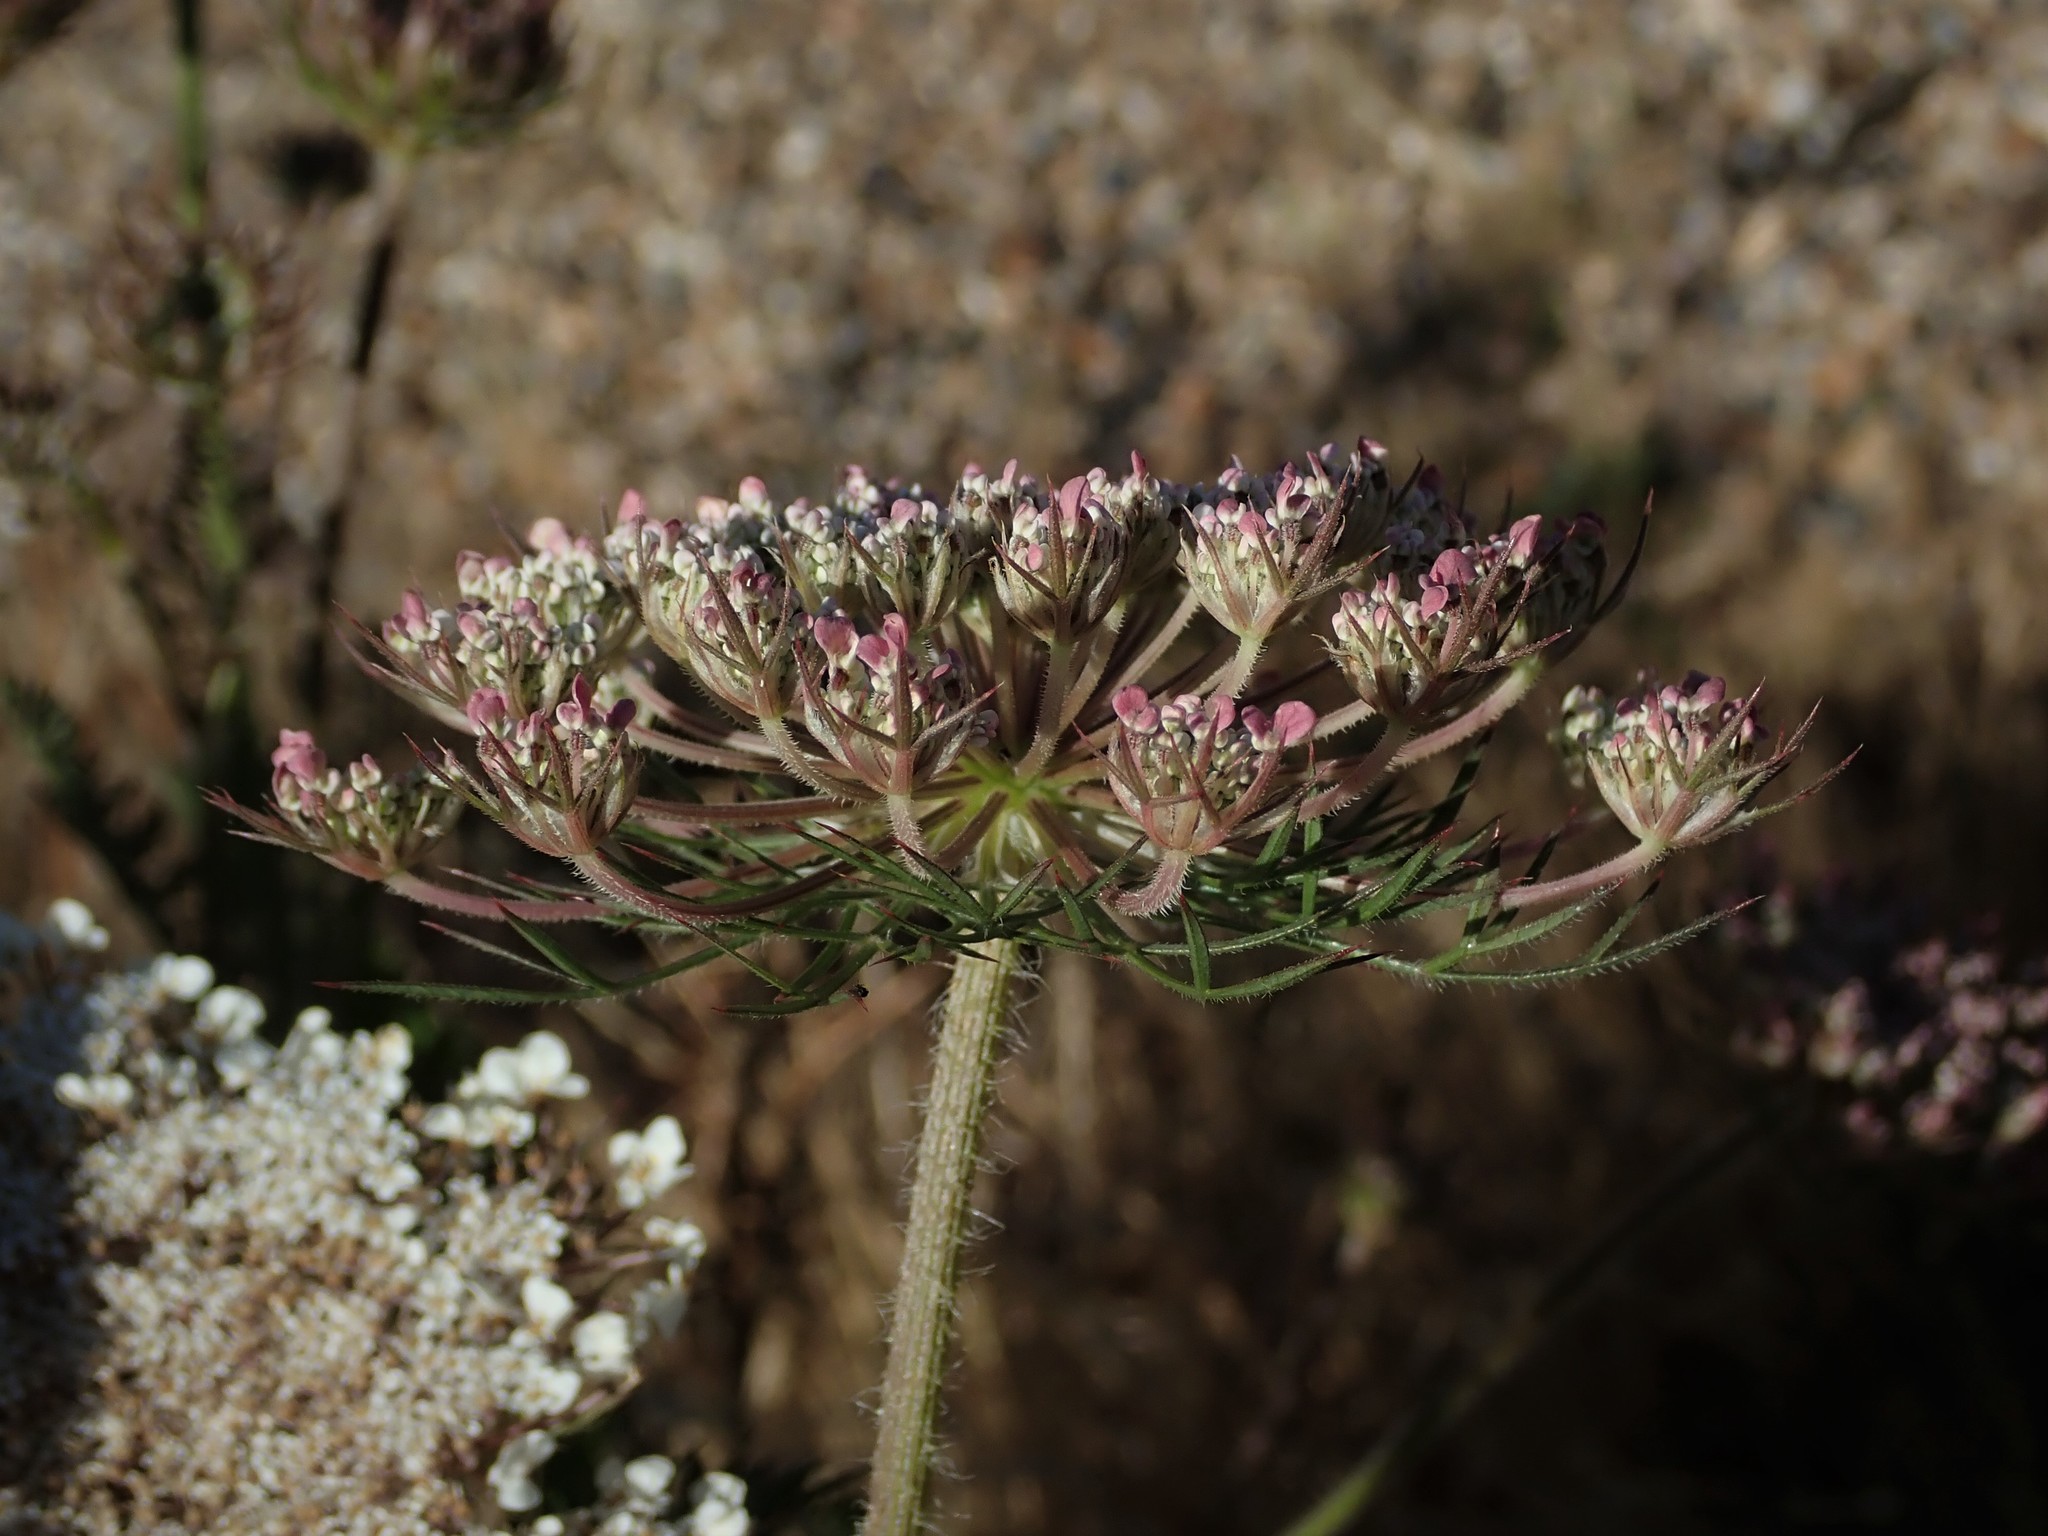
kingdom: Plantae
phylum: Tracheophyta
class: Magnoliopsida
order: Apiales
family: Apiaceae
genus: Daucus
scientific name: Daucus carota
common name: Wild carrot
